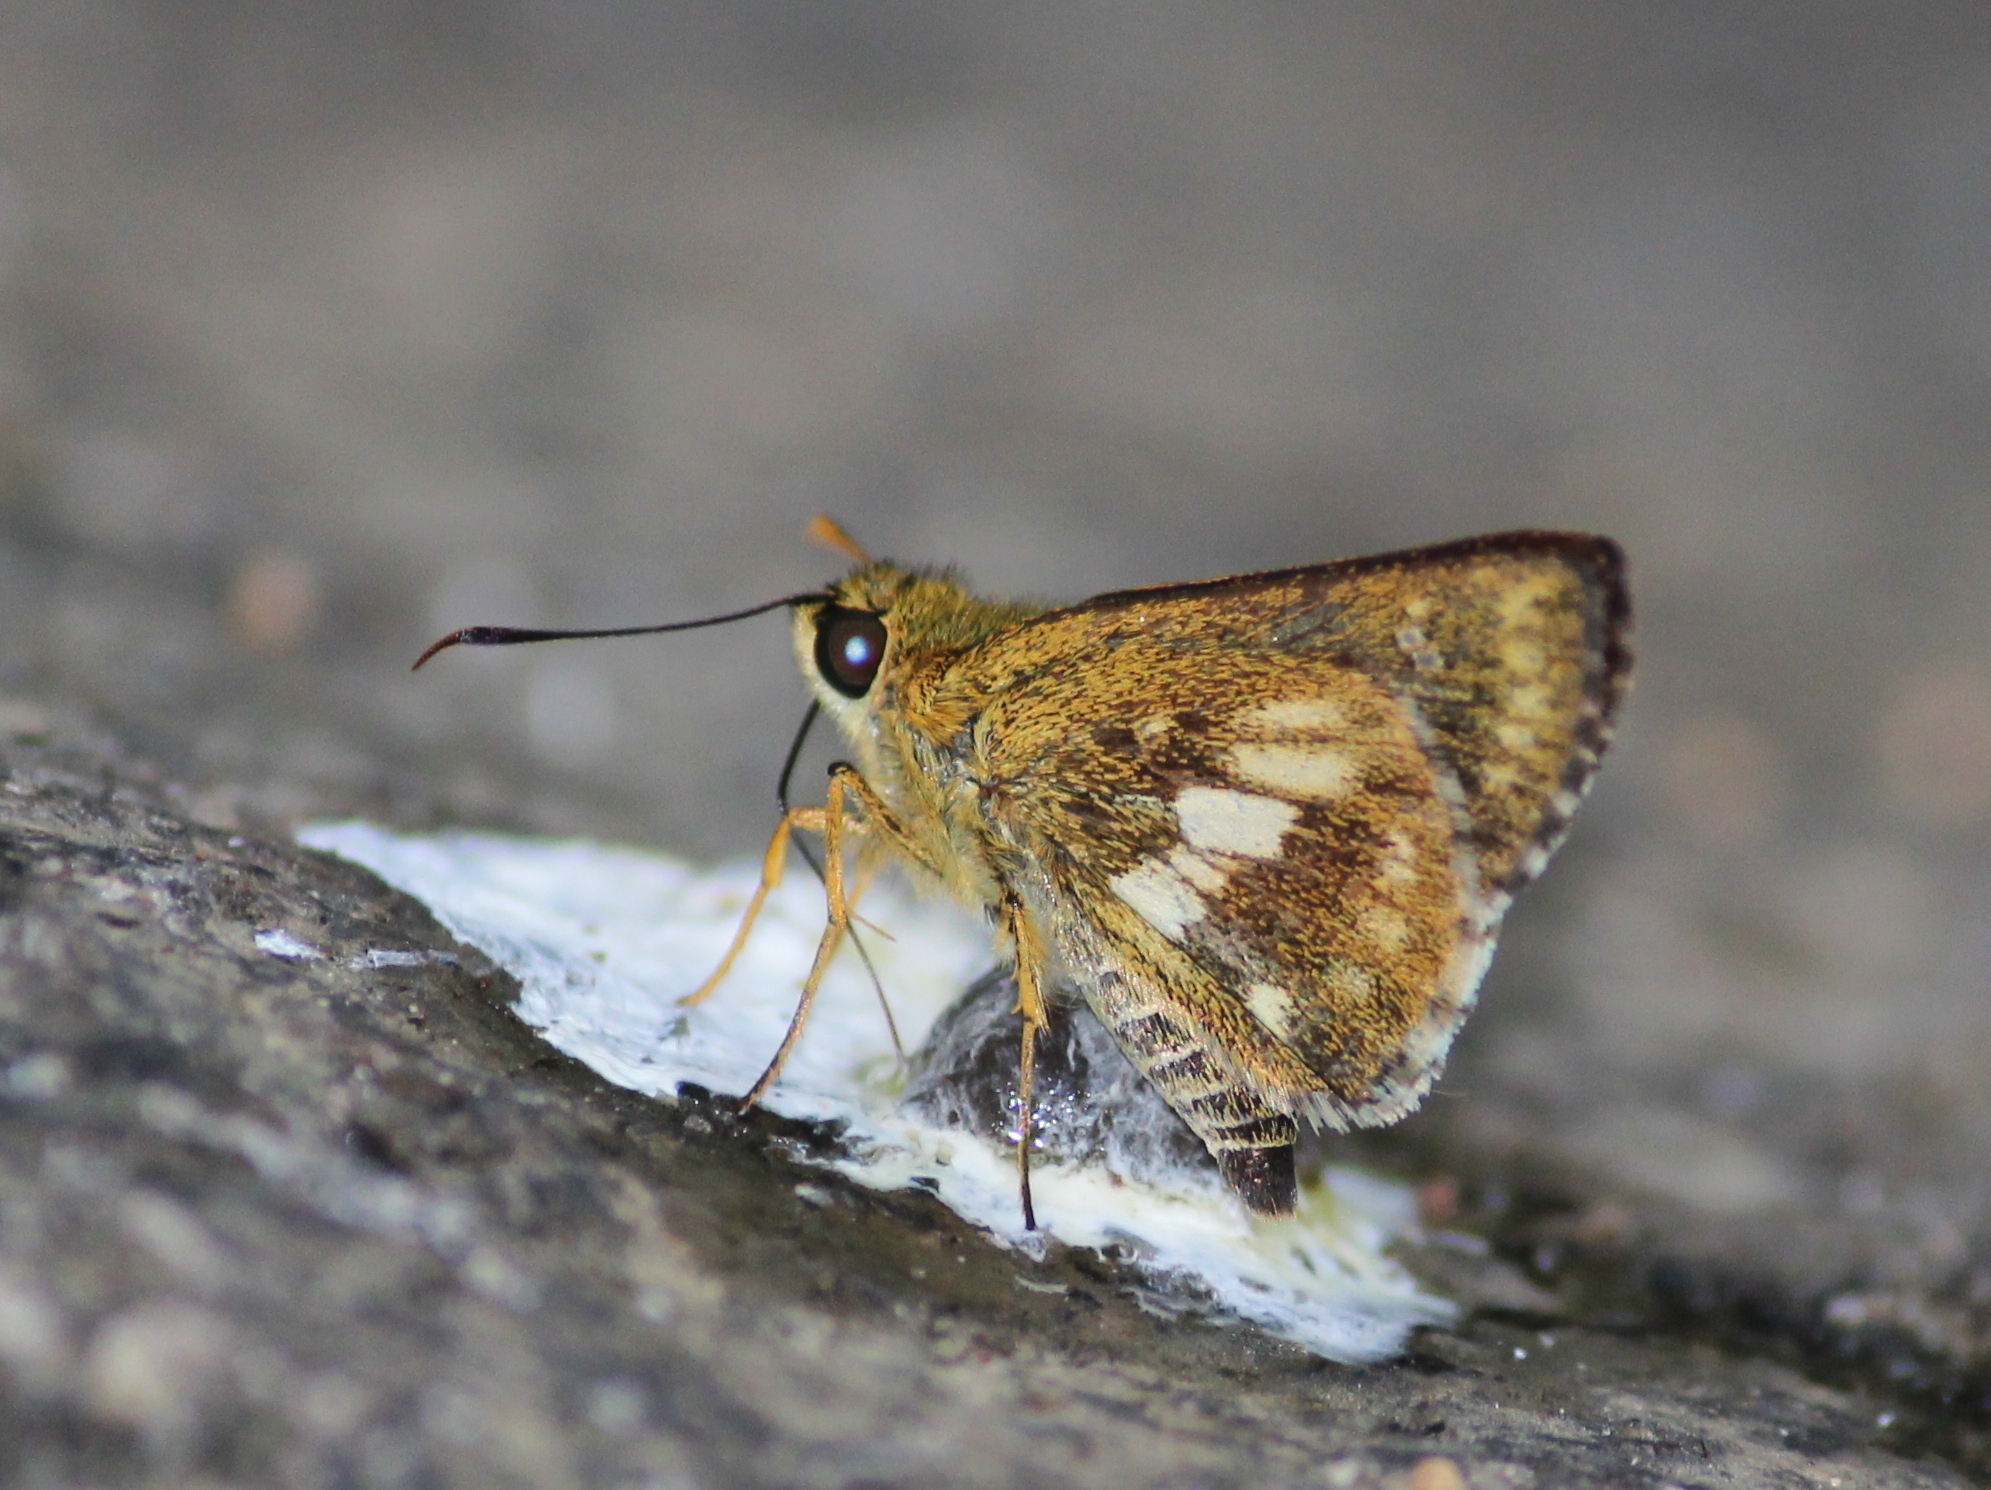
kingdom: Animalia
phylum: Arthropoda
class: Insecta
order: Lepidoptera
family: Hesperiidae
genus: Halpe
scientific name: Halpe homolea
